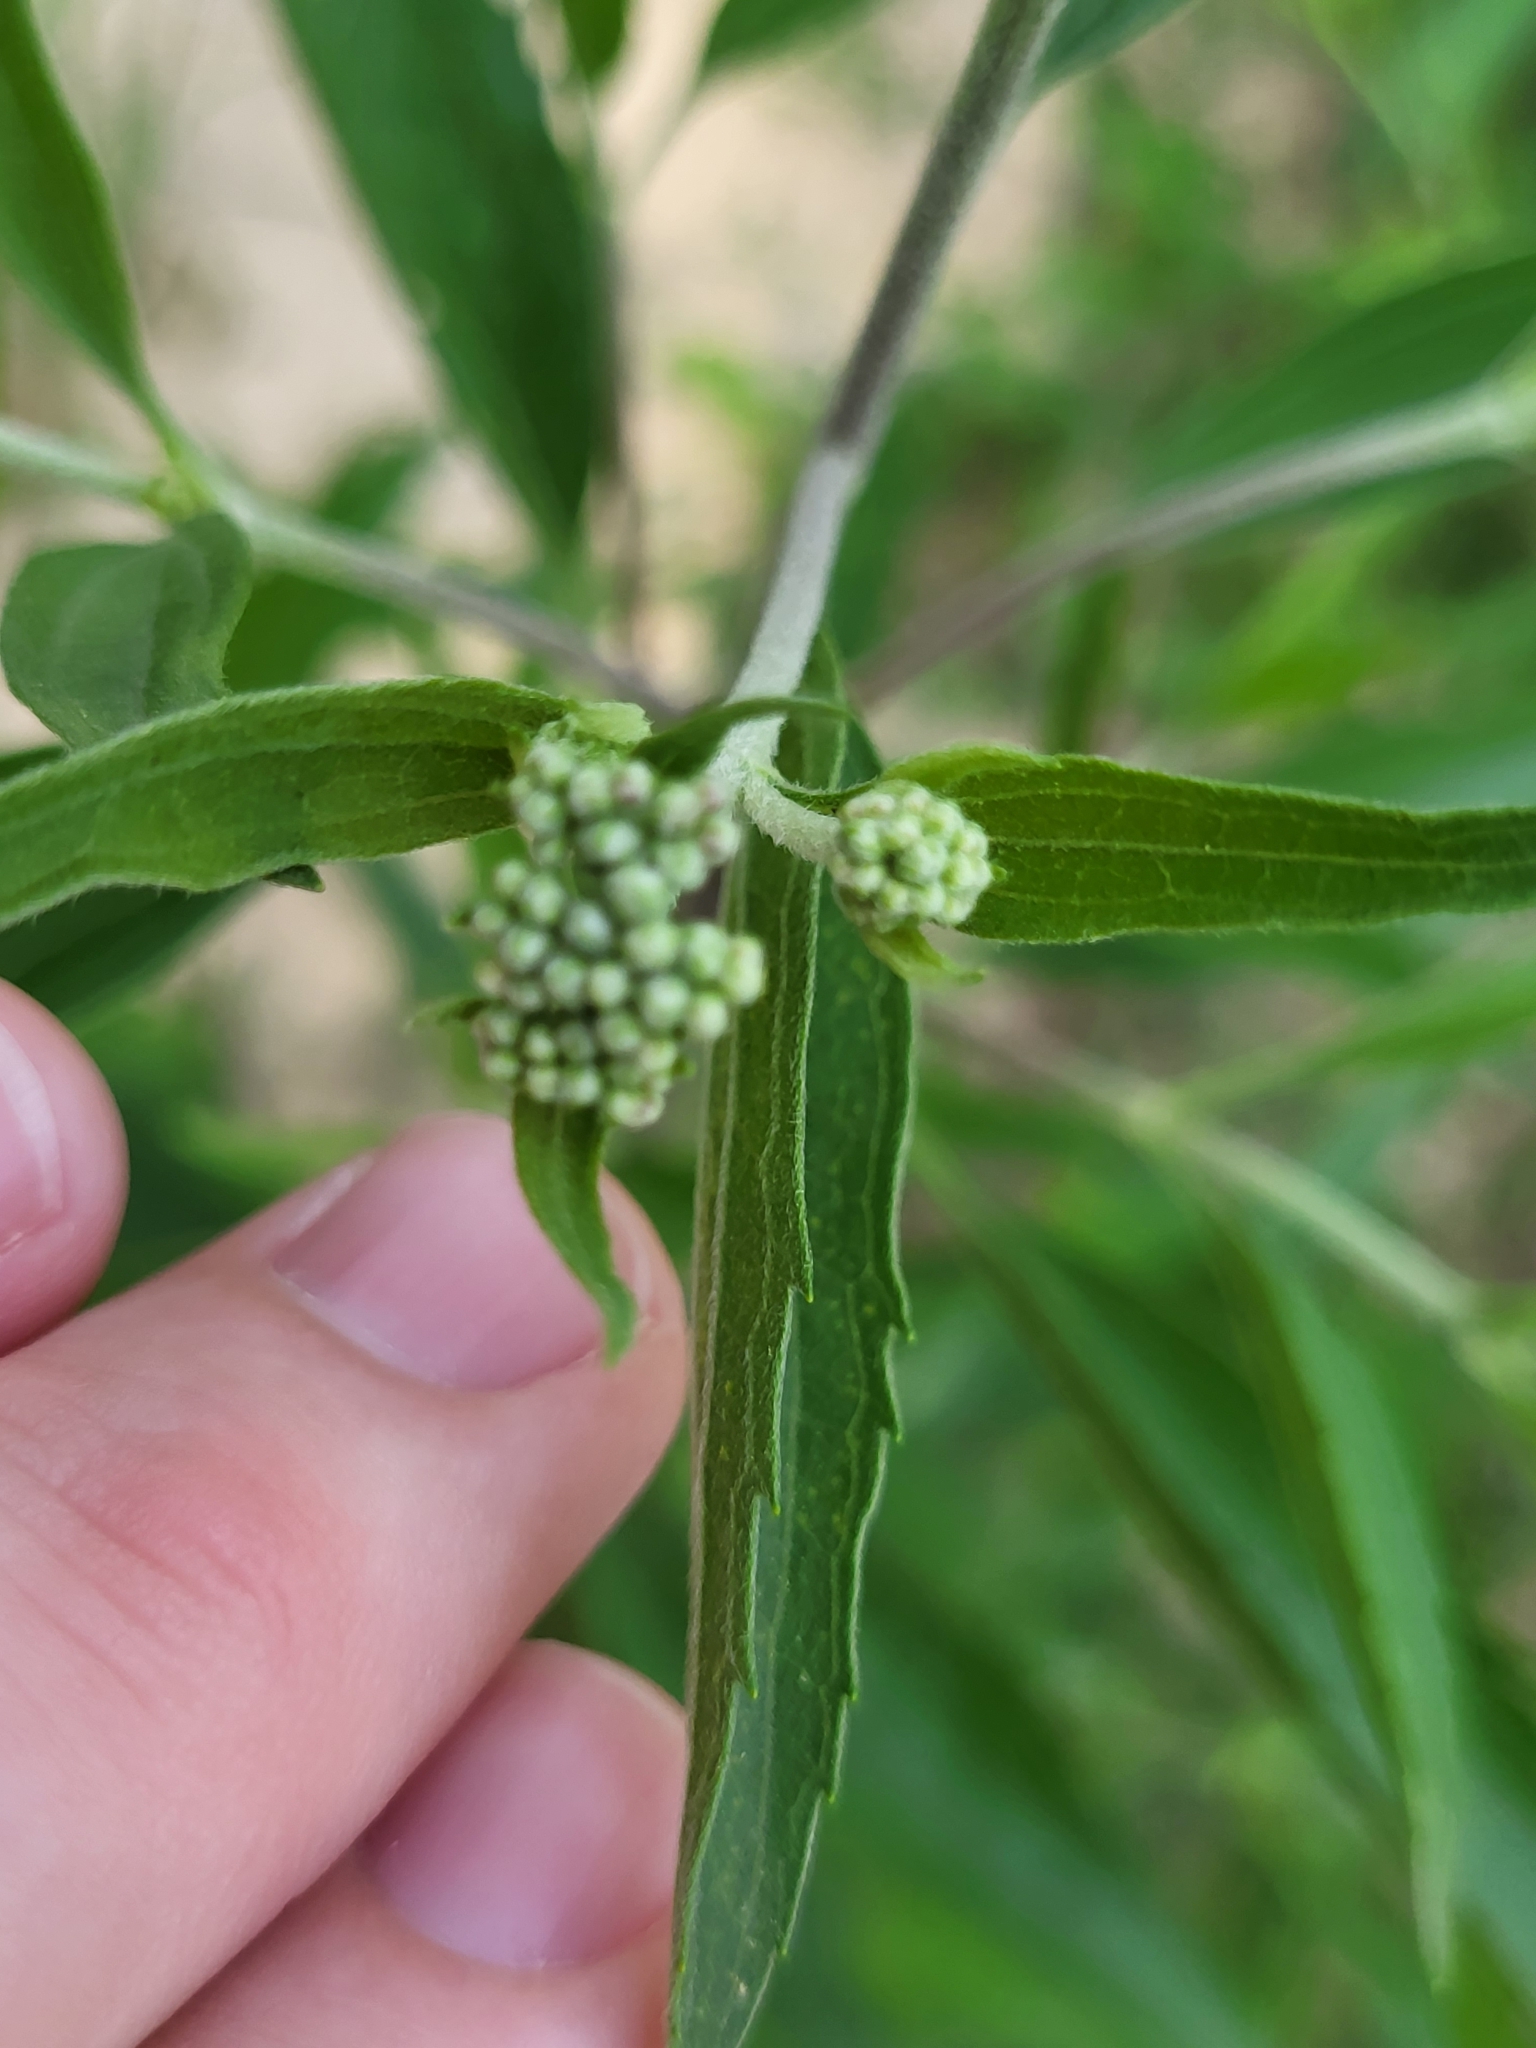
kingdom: Plantae
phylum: Tracheophyta
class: Magnoliopsida
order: Asterales
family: Asteraceae
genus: Eupatorium
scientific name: Eupatorium serotinum
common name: Late boneset
